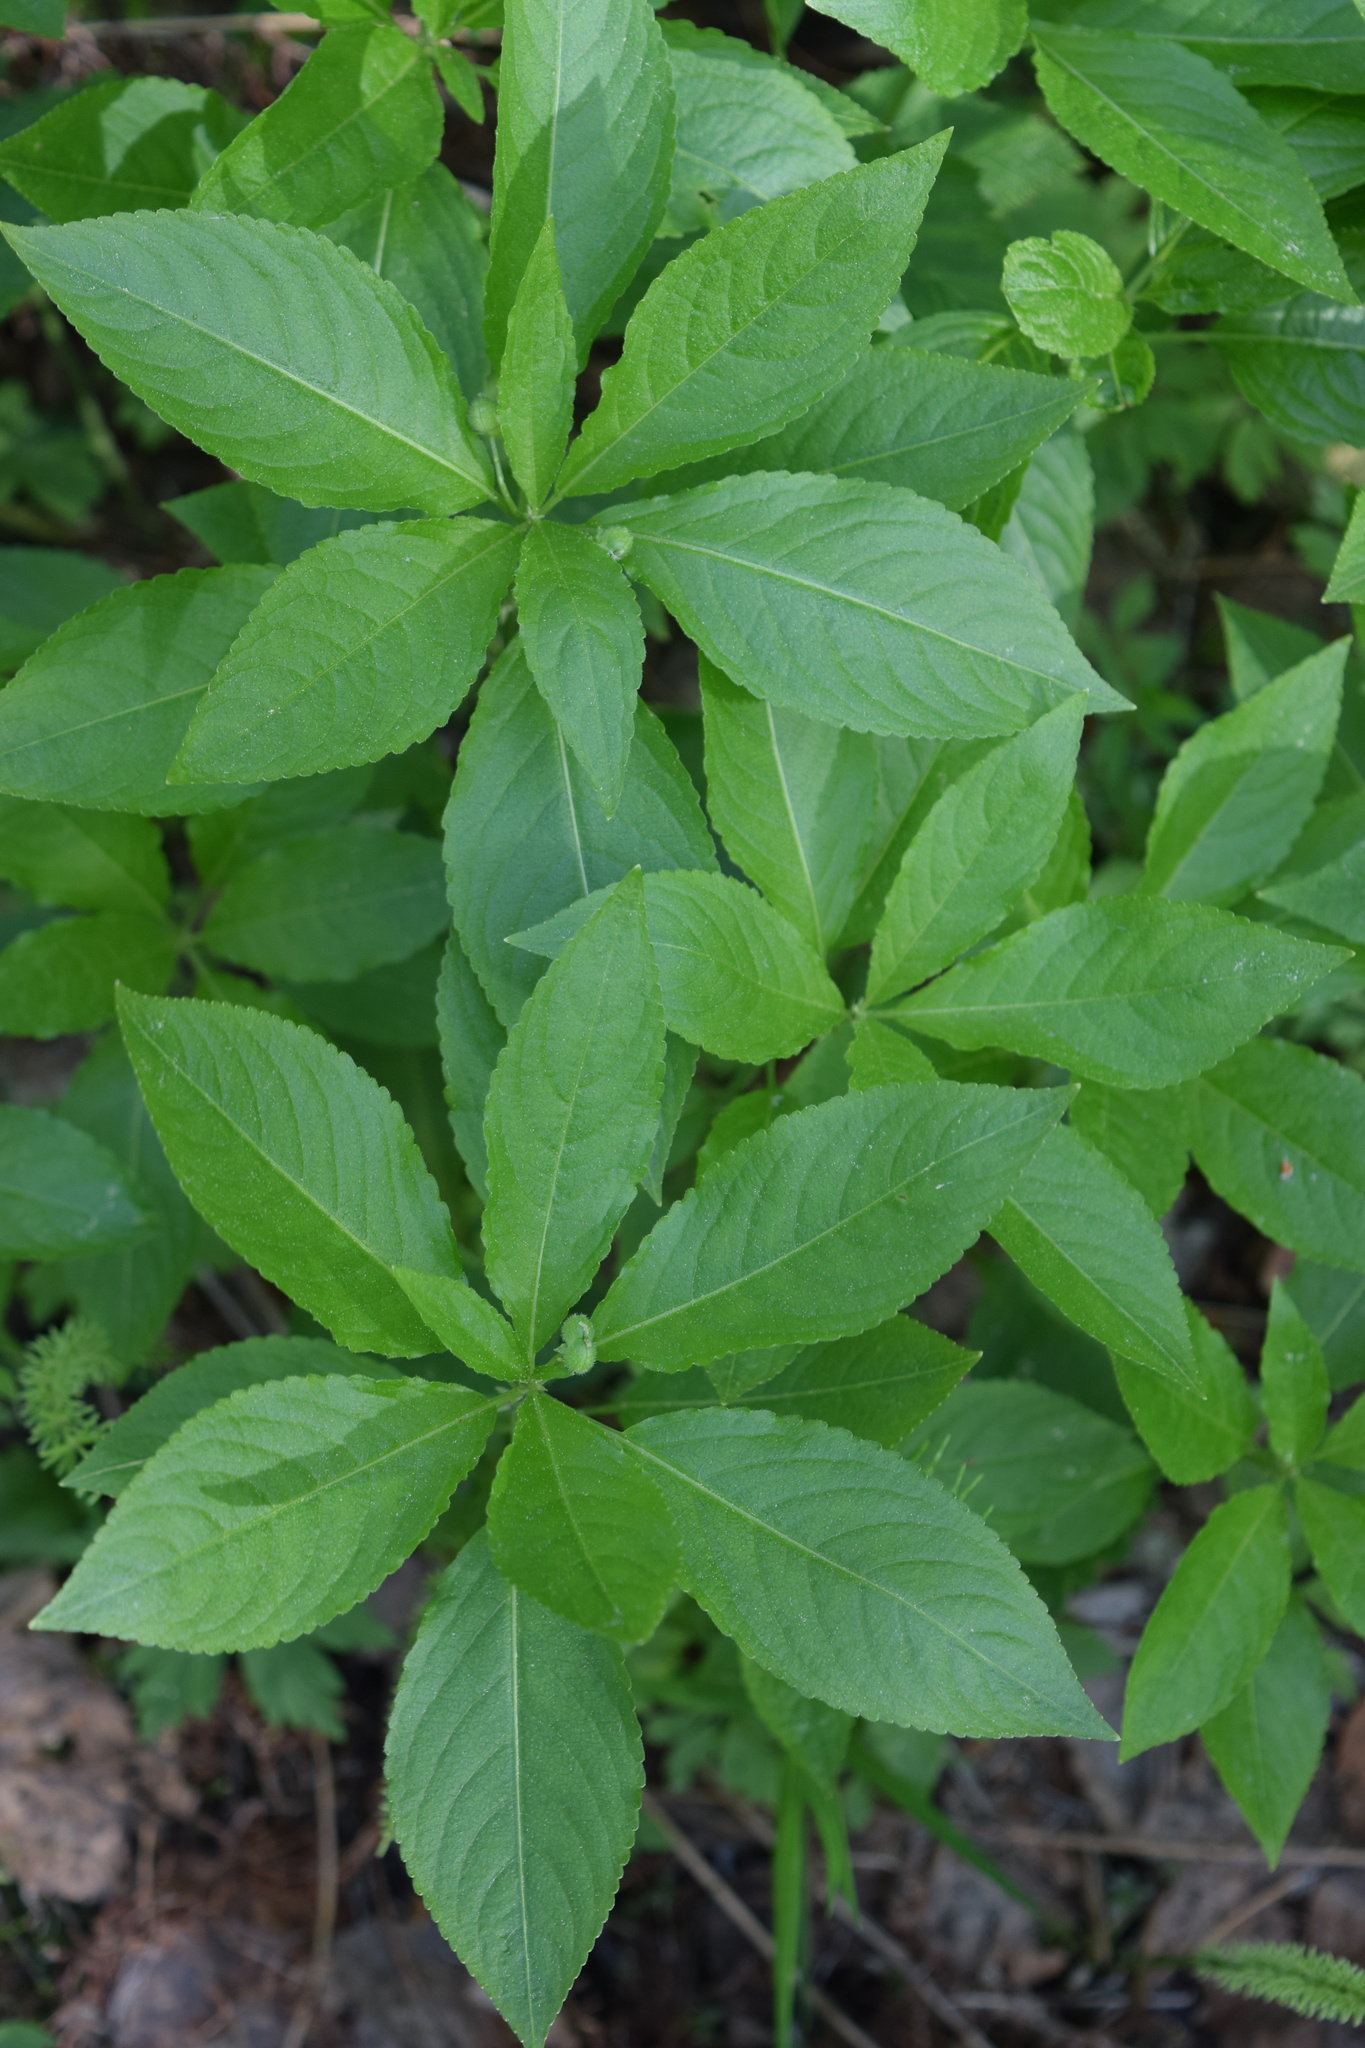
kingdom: Plantae
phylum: Tracheophyta
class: Magnoliopsida
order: Malpighiales
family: Euphorbiaceae
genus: Mercurialis
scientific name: Mercurialis perennis
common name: Dog mercury
